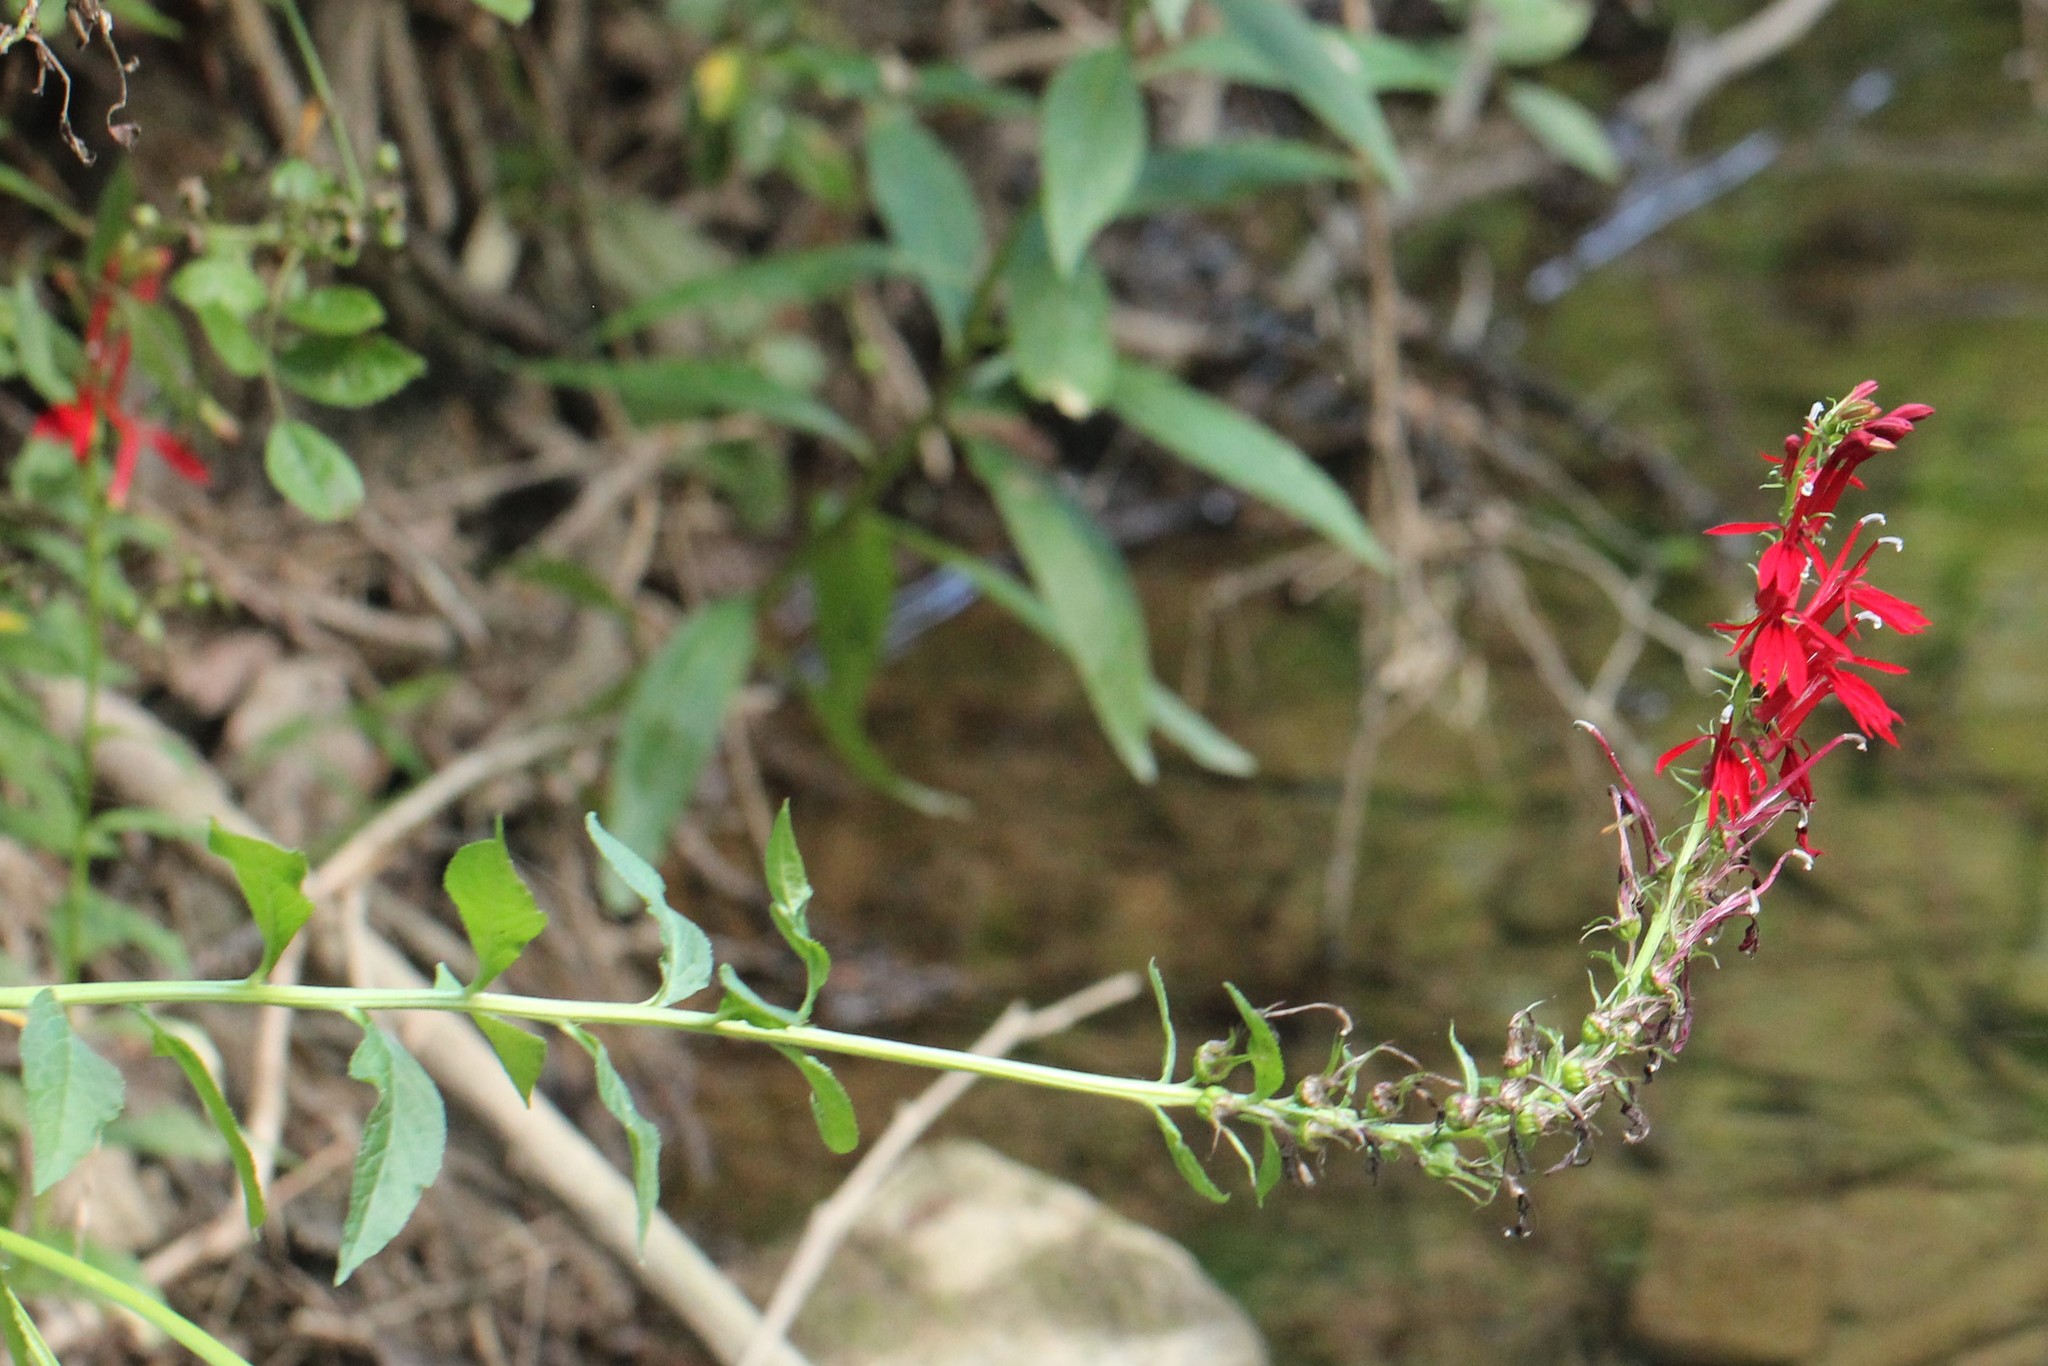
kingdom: Plantae
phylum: Tracheophyta
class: Magnoliopsida
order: Asterales
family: Campanulaceae
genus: Lobelia
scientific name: Lobelia cardinalis
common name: Cardinal flower
